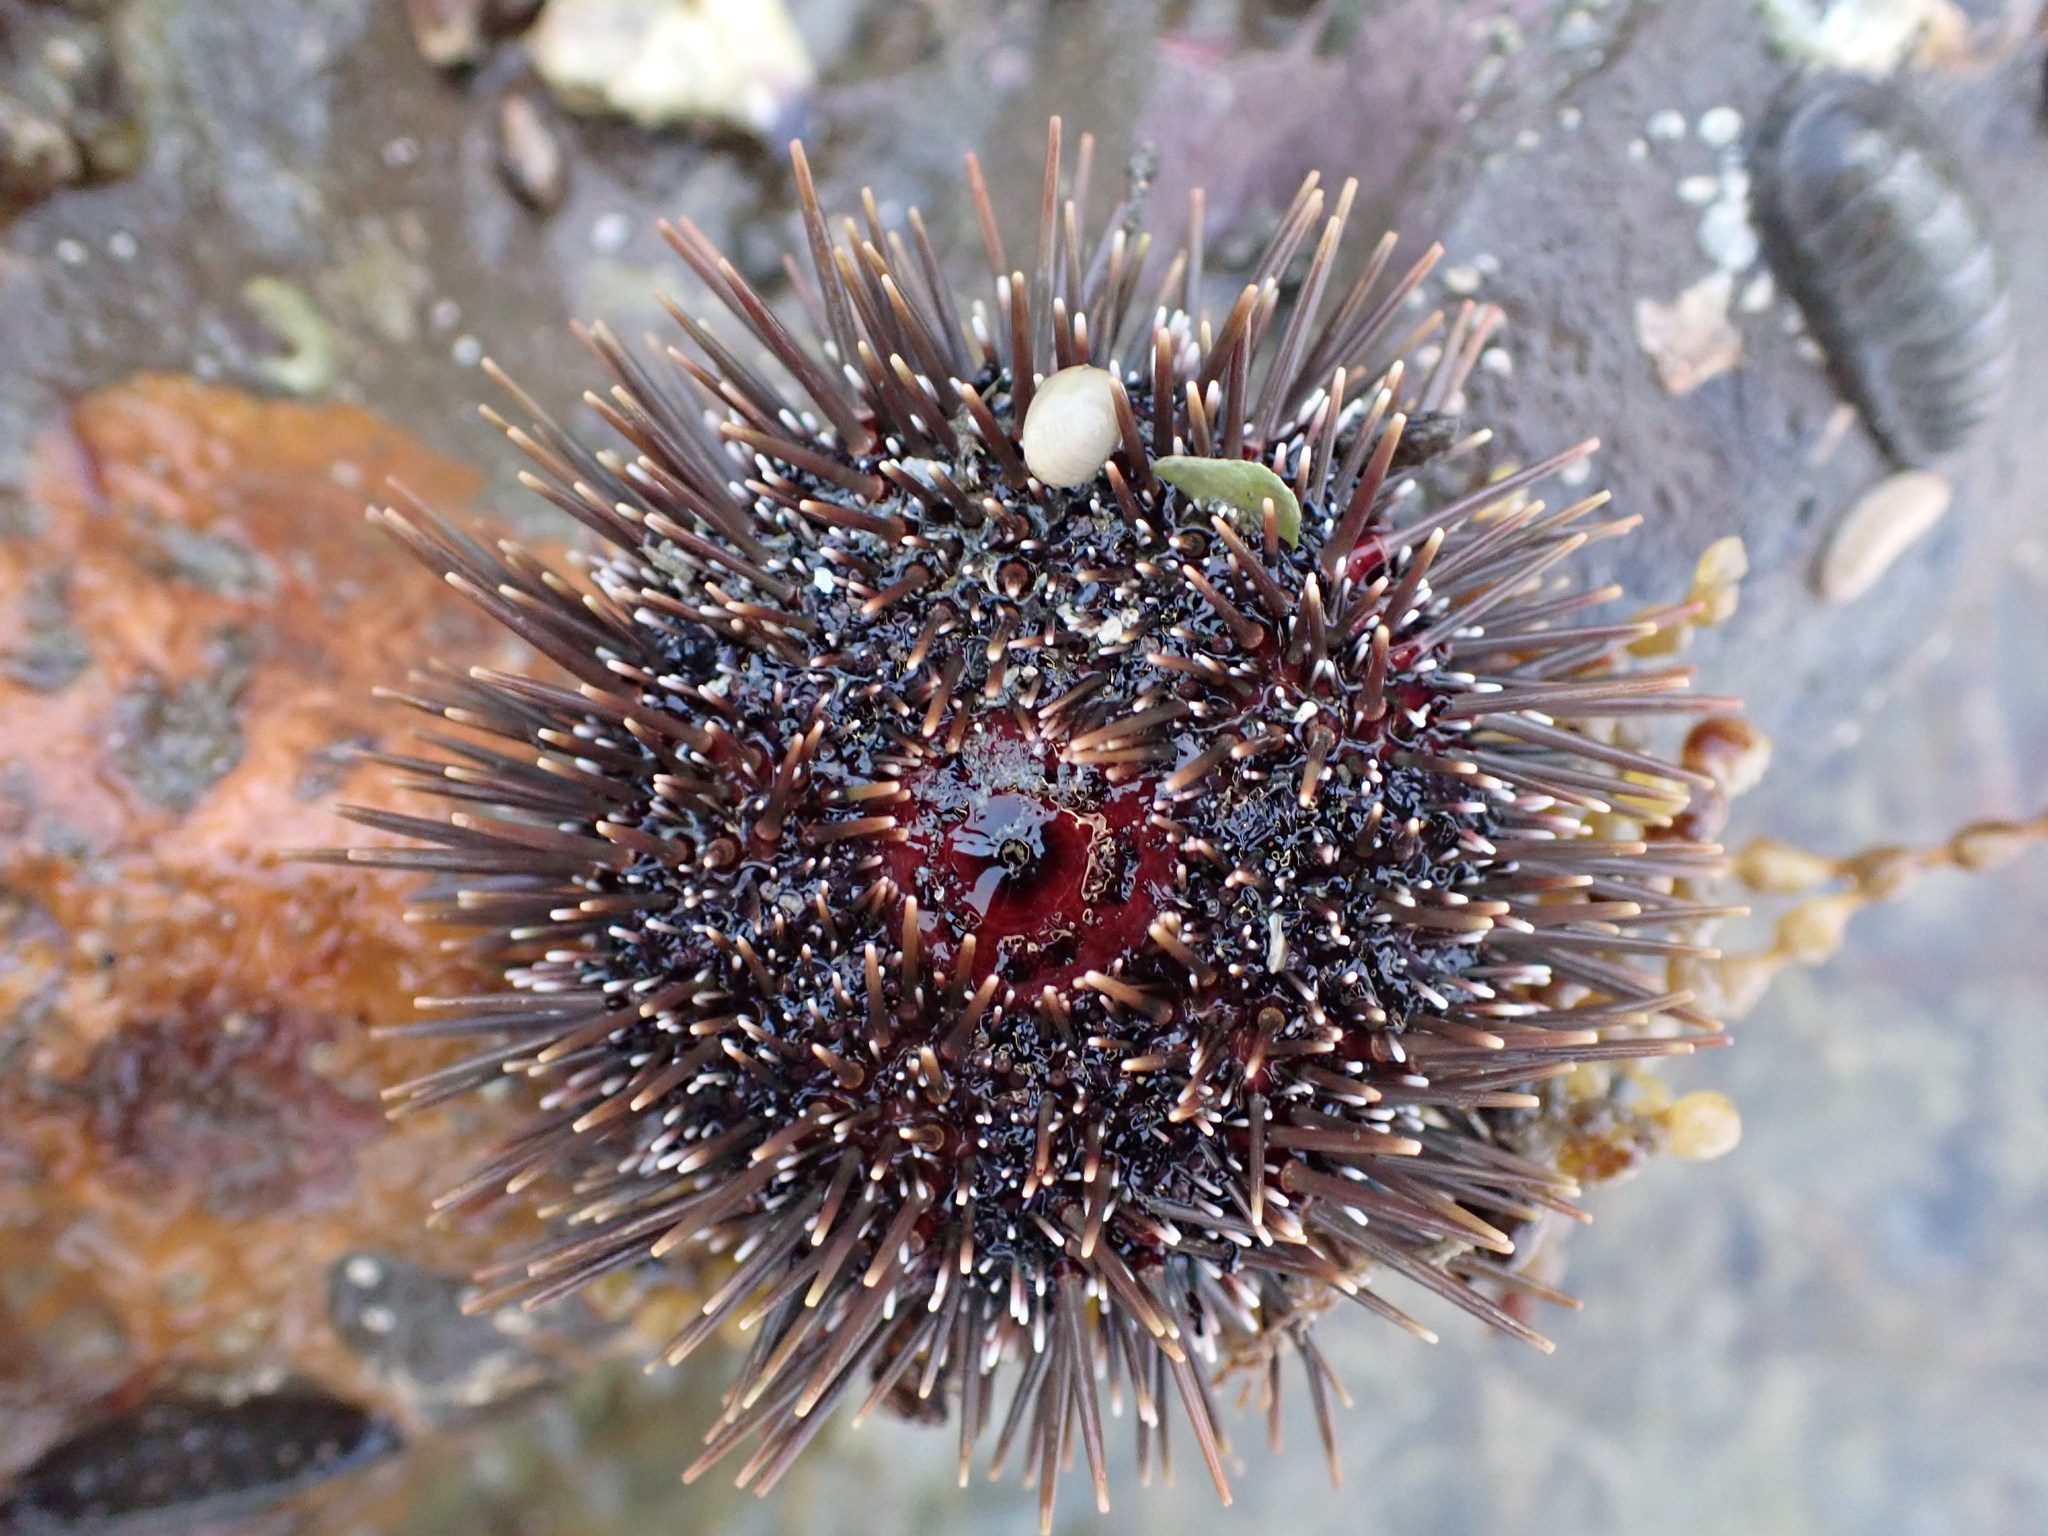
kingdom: Animalia
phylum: Echinodermata
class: Echinoidea
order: Camarodonta
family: Echinometridae
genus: Evechinus
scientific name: Evechinus chloroticus
